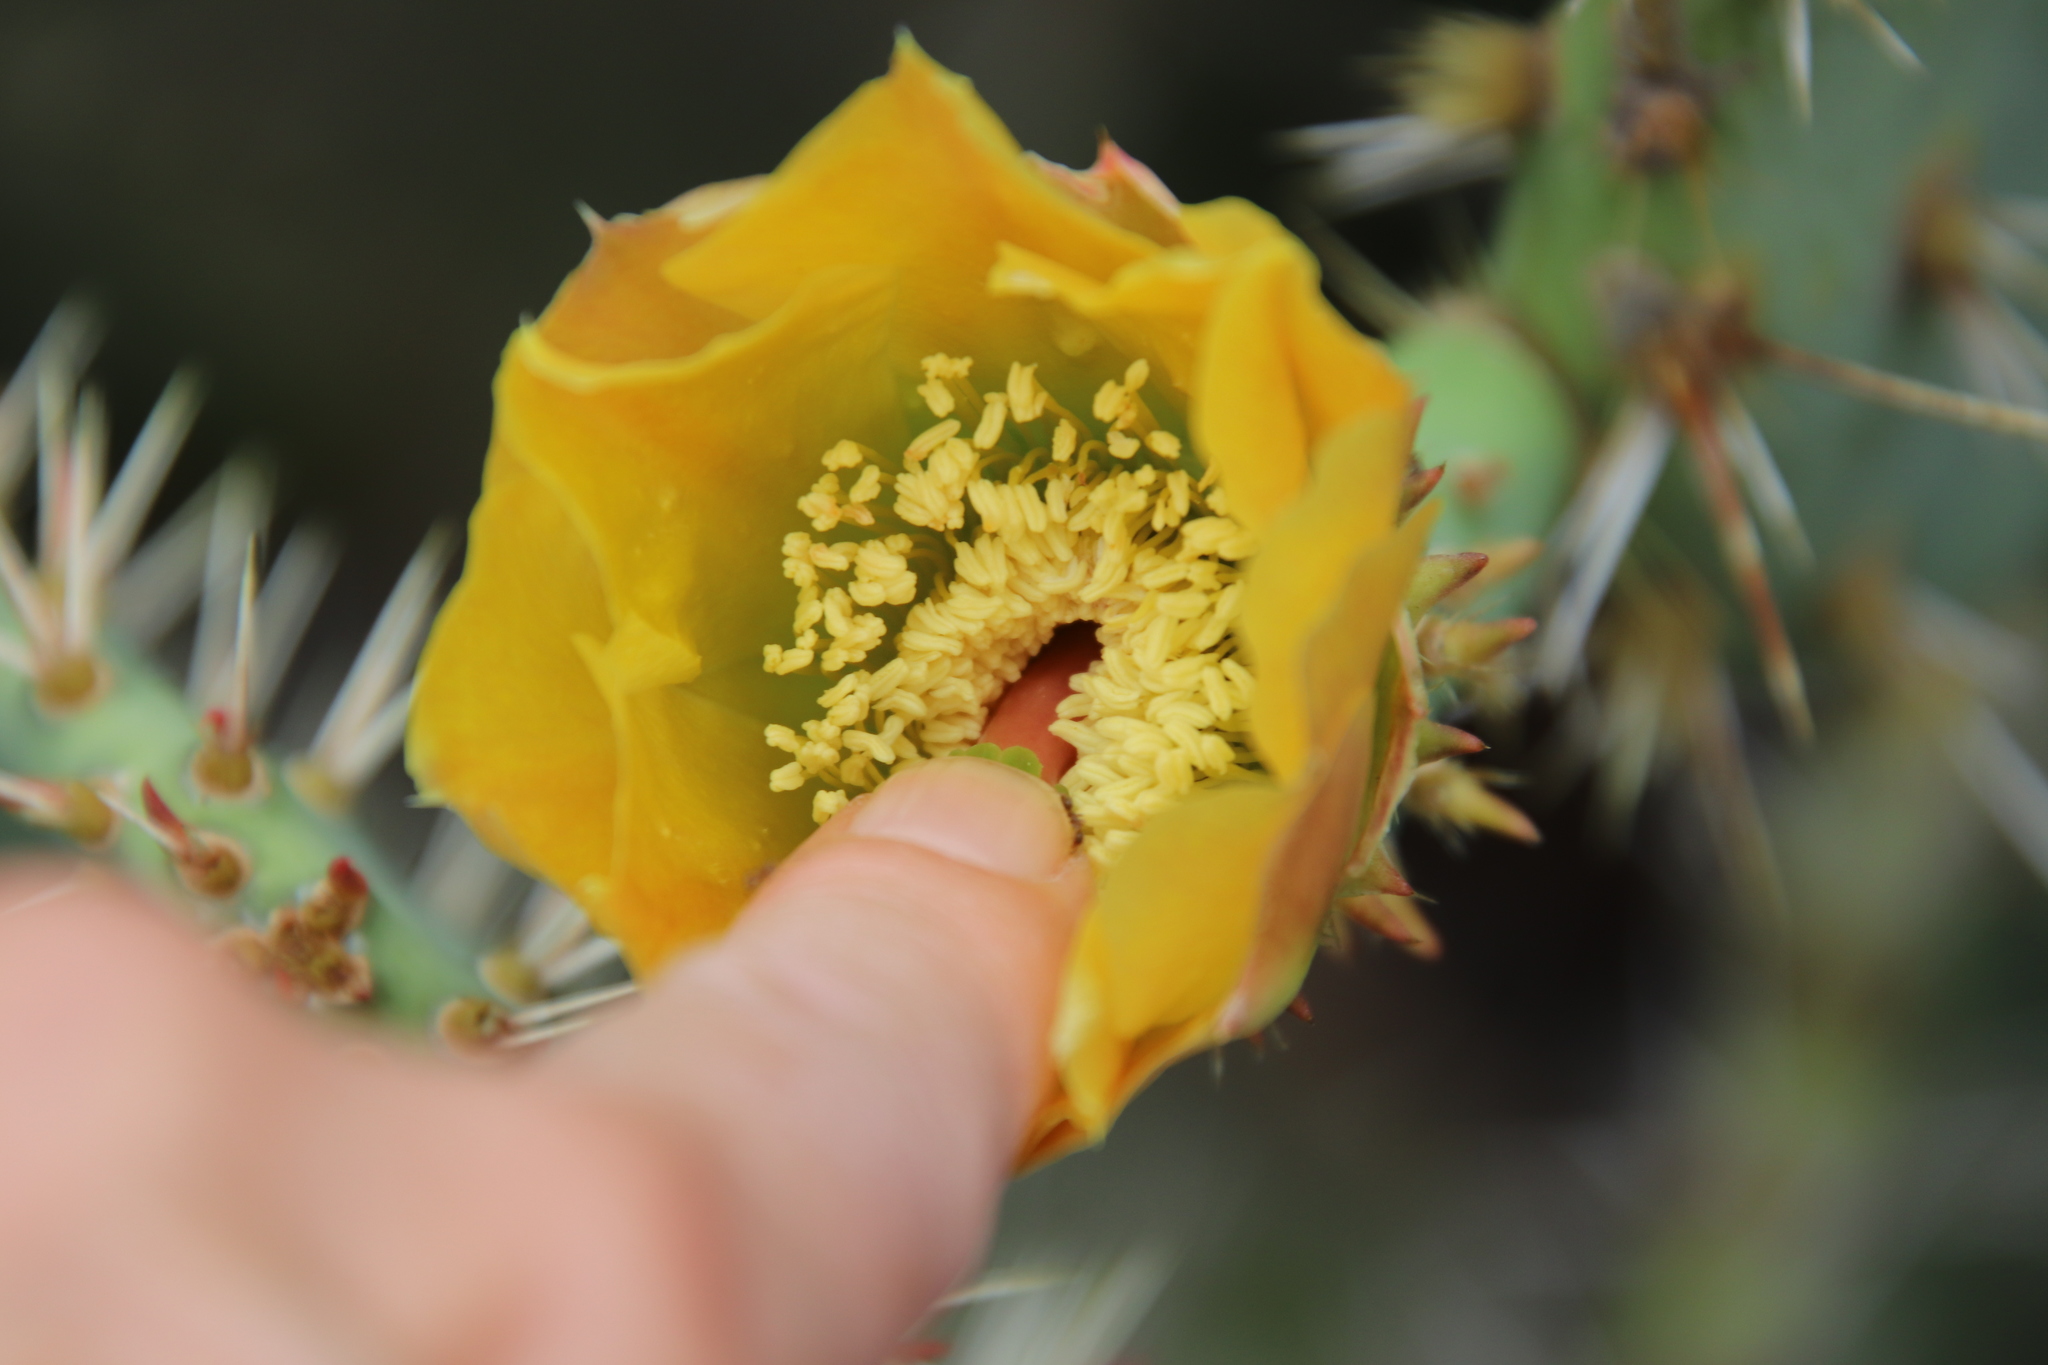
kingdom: Plantae
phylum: Tracheophyta
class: Magnoliopsida
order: Caryophyllales
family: Cactaceae
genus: Opuntia
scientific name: Opuntia littoralis
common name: Coastal prickly-pear
